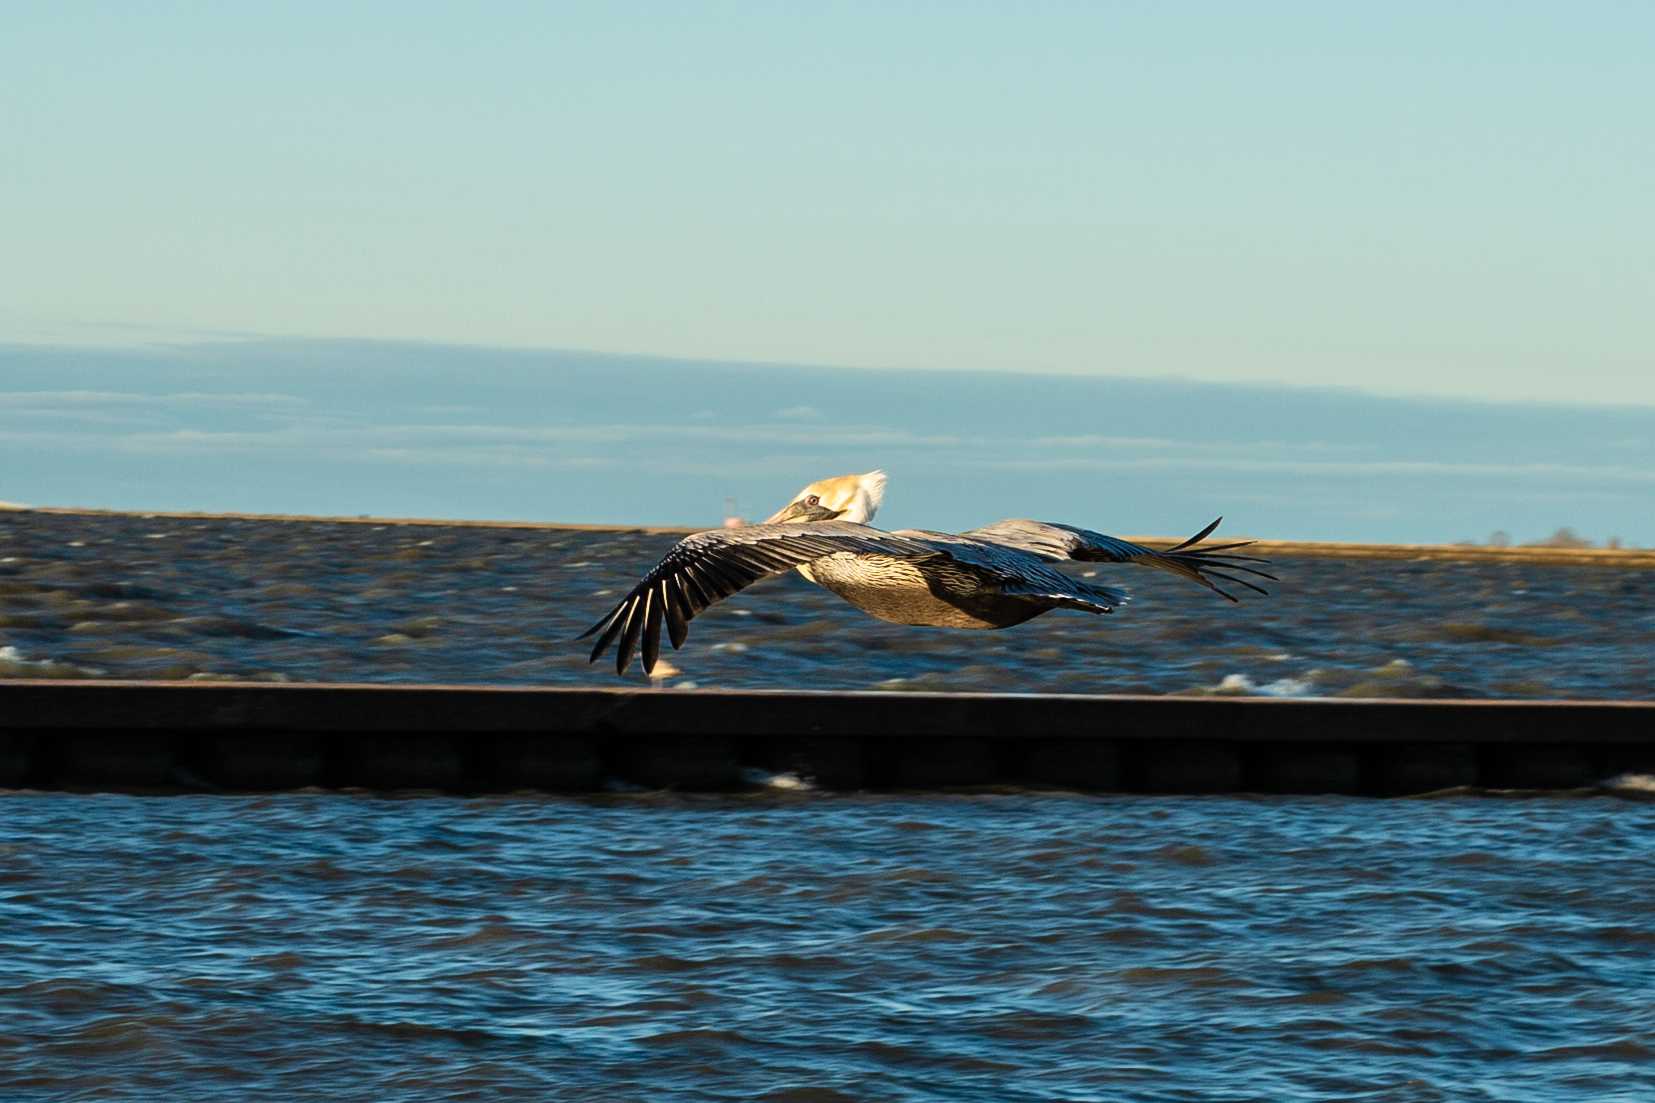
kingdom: Animalia
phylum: Chordata
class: Aves
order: Pelecaniformes
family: Pelecanidae
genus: Pelecanus
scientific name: Pelecanus occidentalis
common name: Brown pelican
